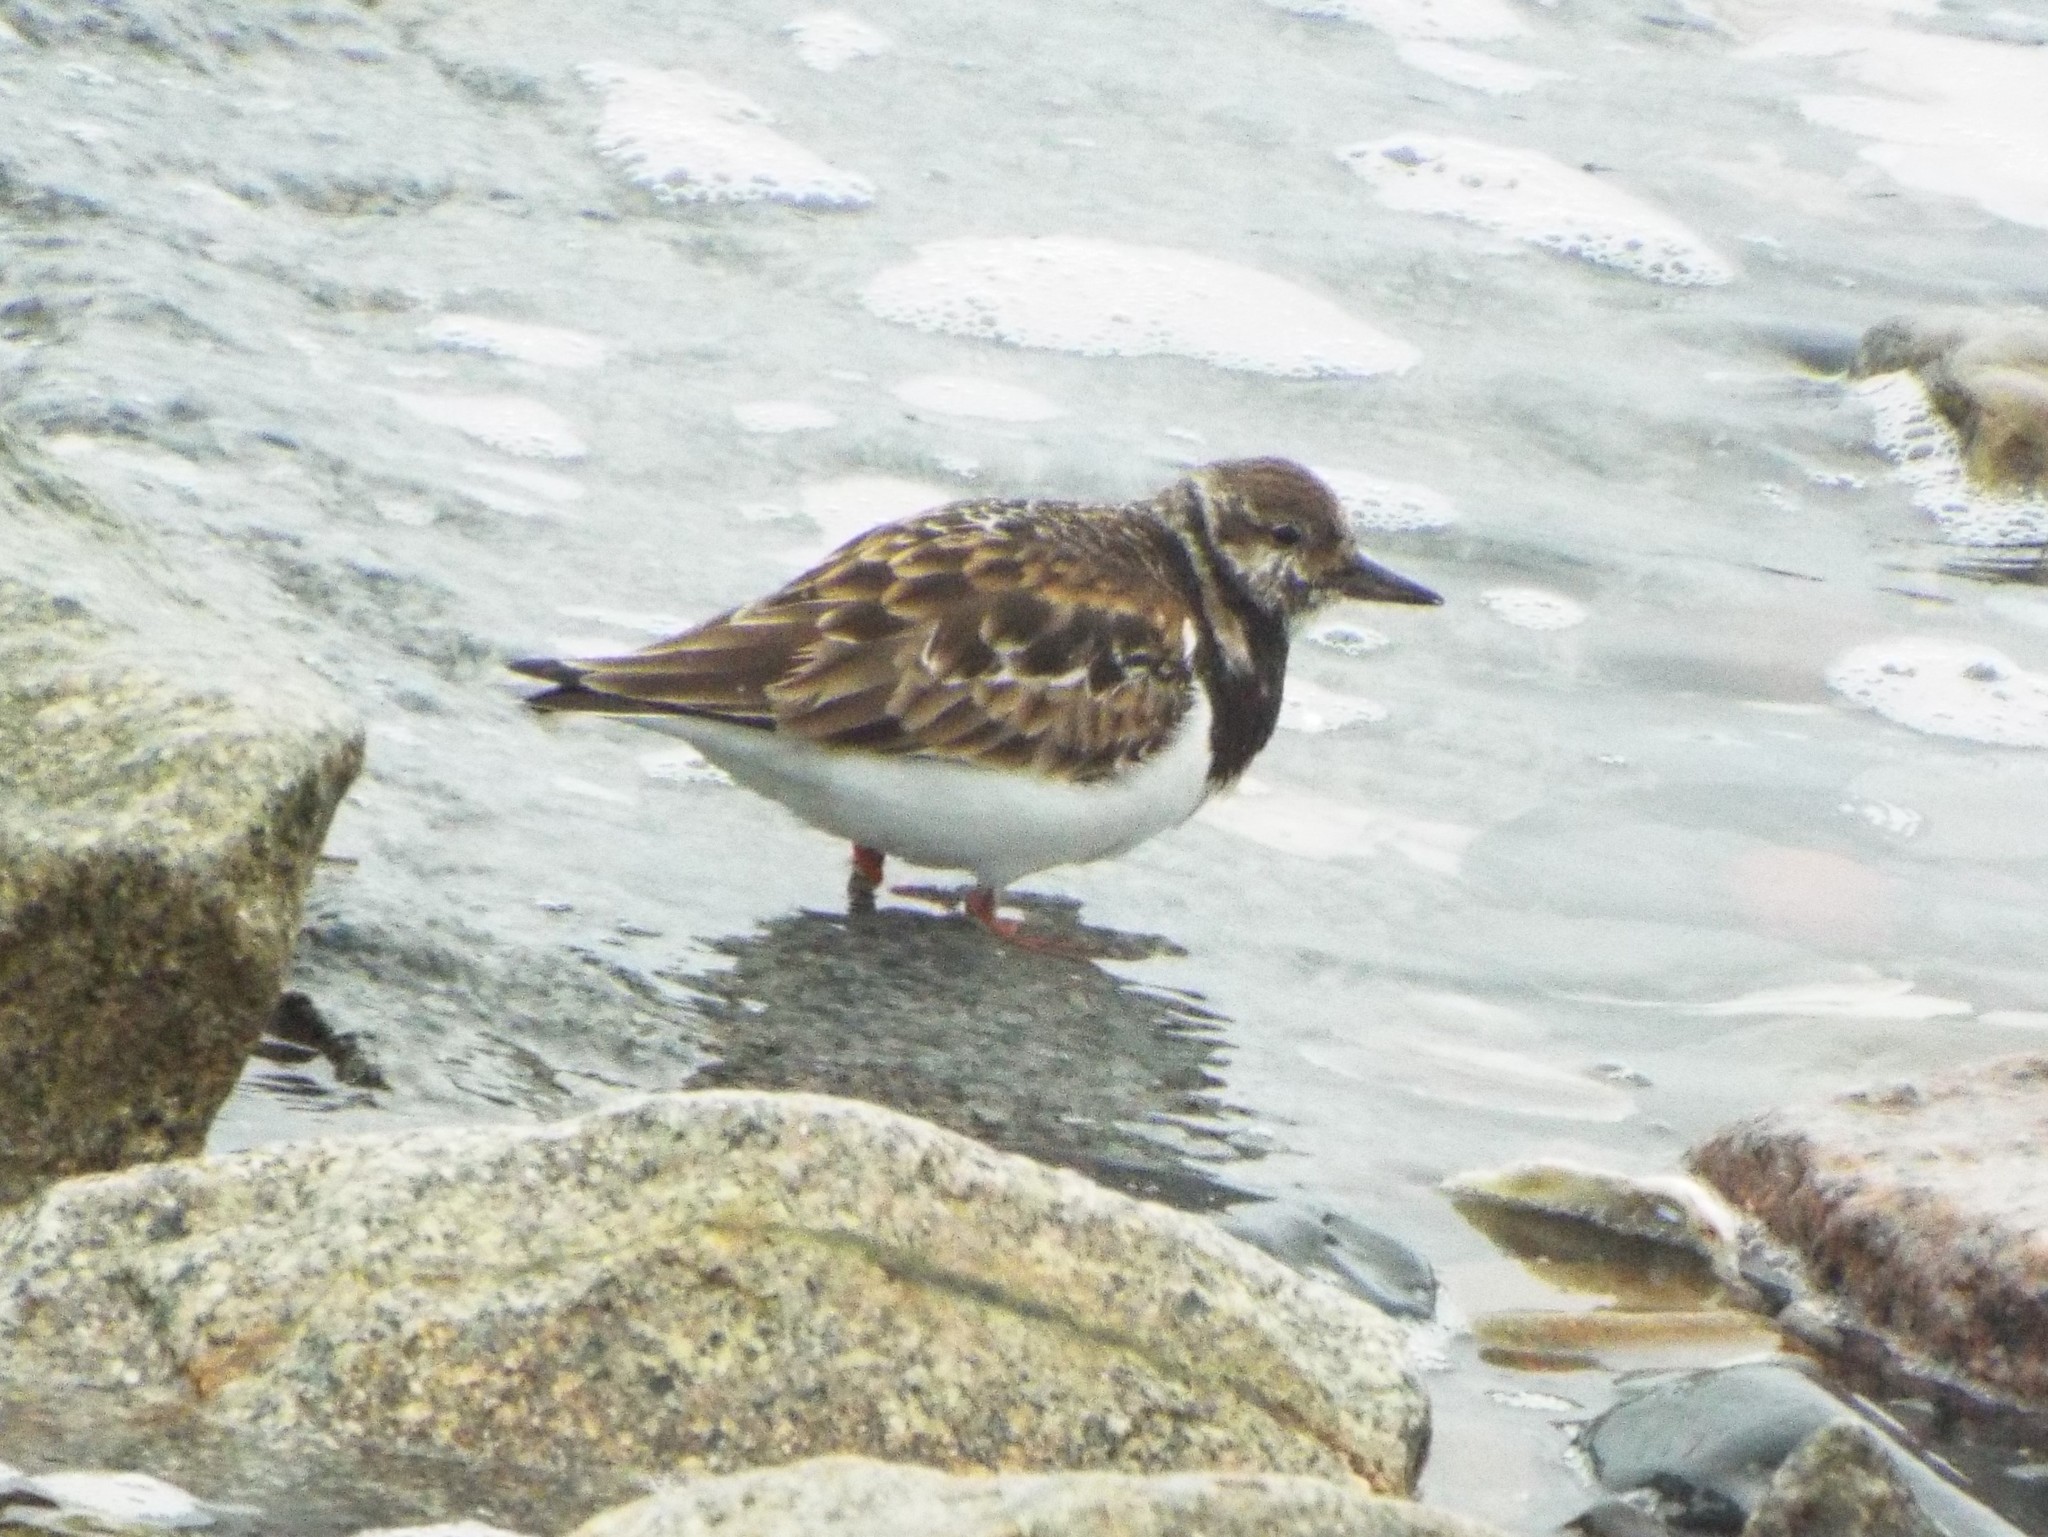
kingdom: Animalia
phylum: Chordata
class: Aves
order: Charadriiformes
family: Scolopacidae
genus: Arenaria
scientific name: Arenaria interpres
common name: Ruddy turnstone
